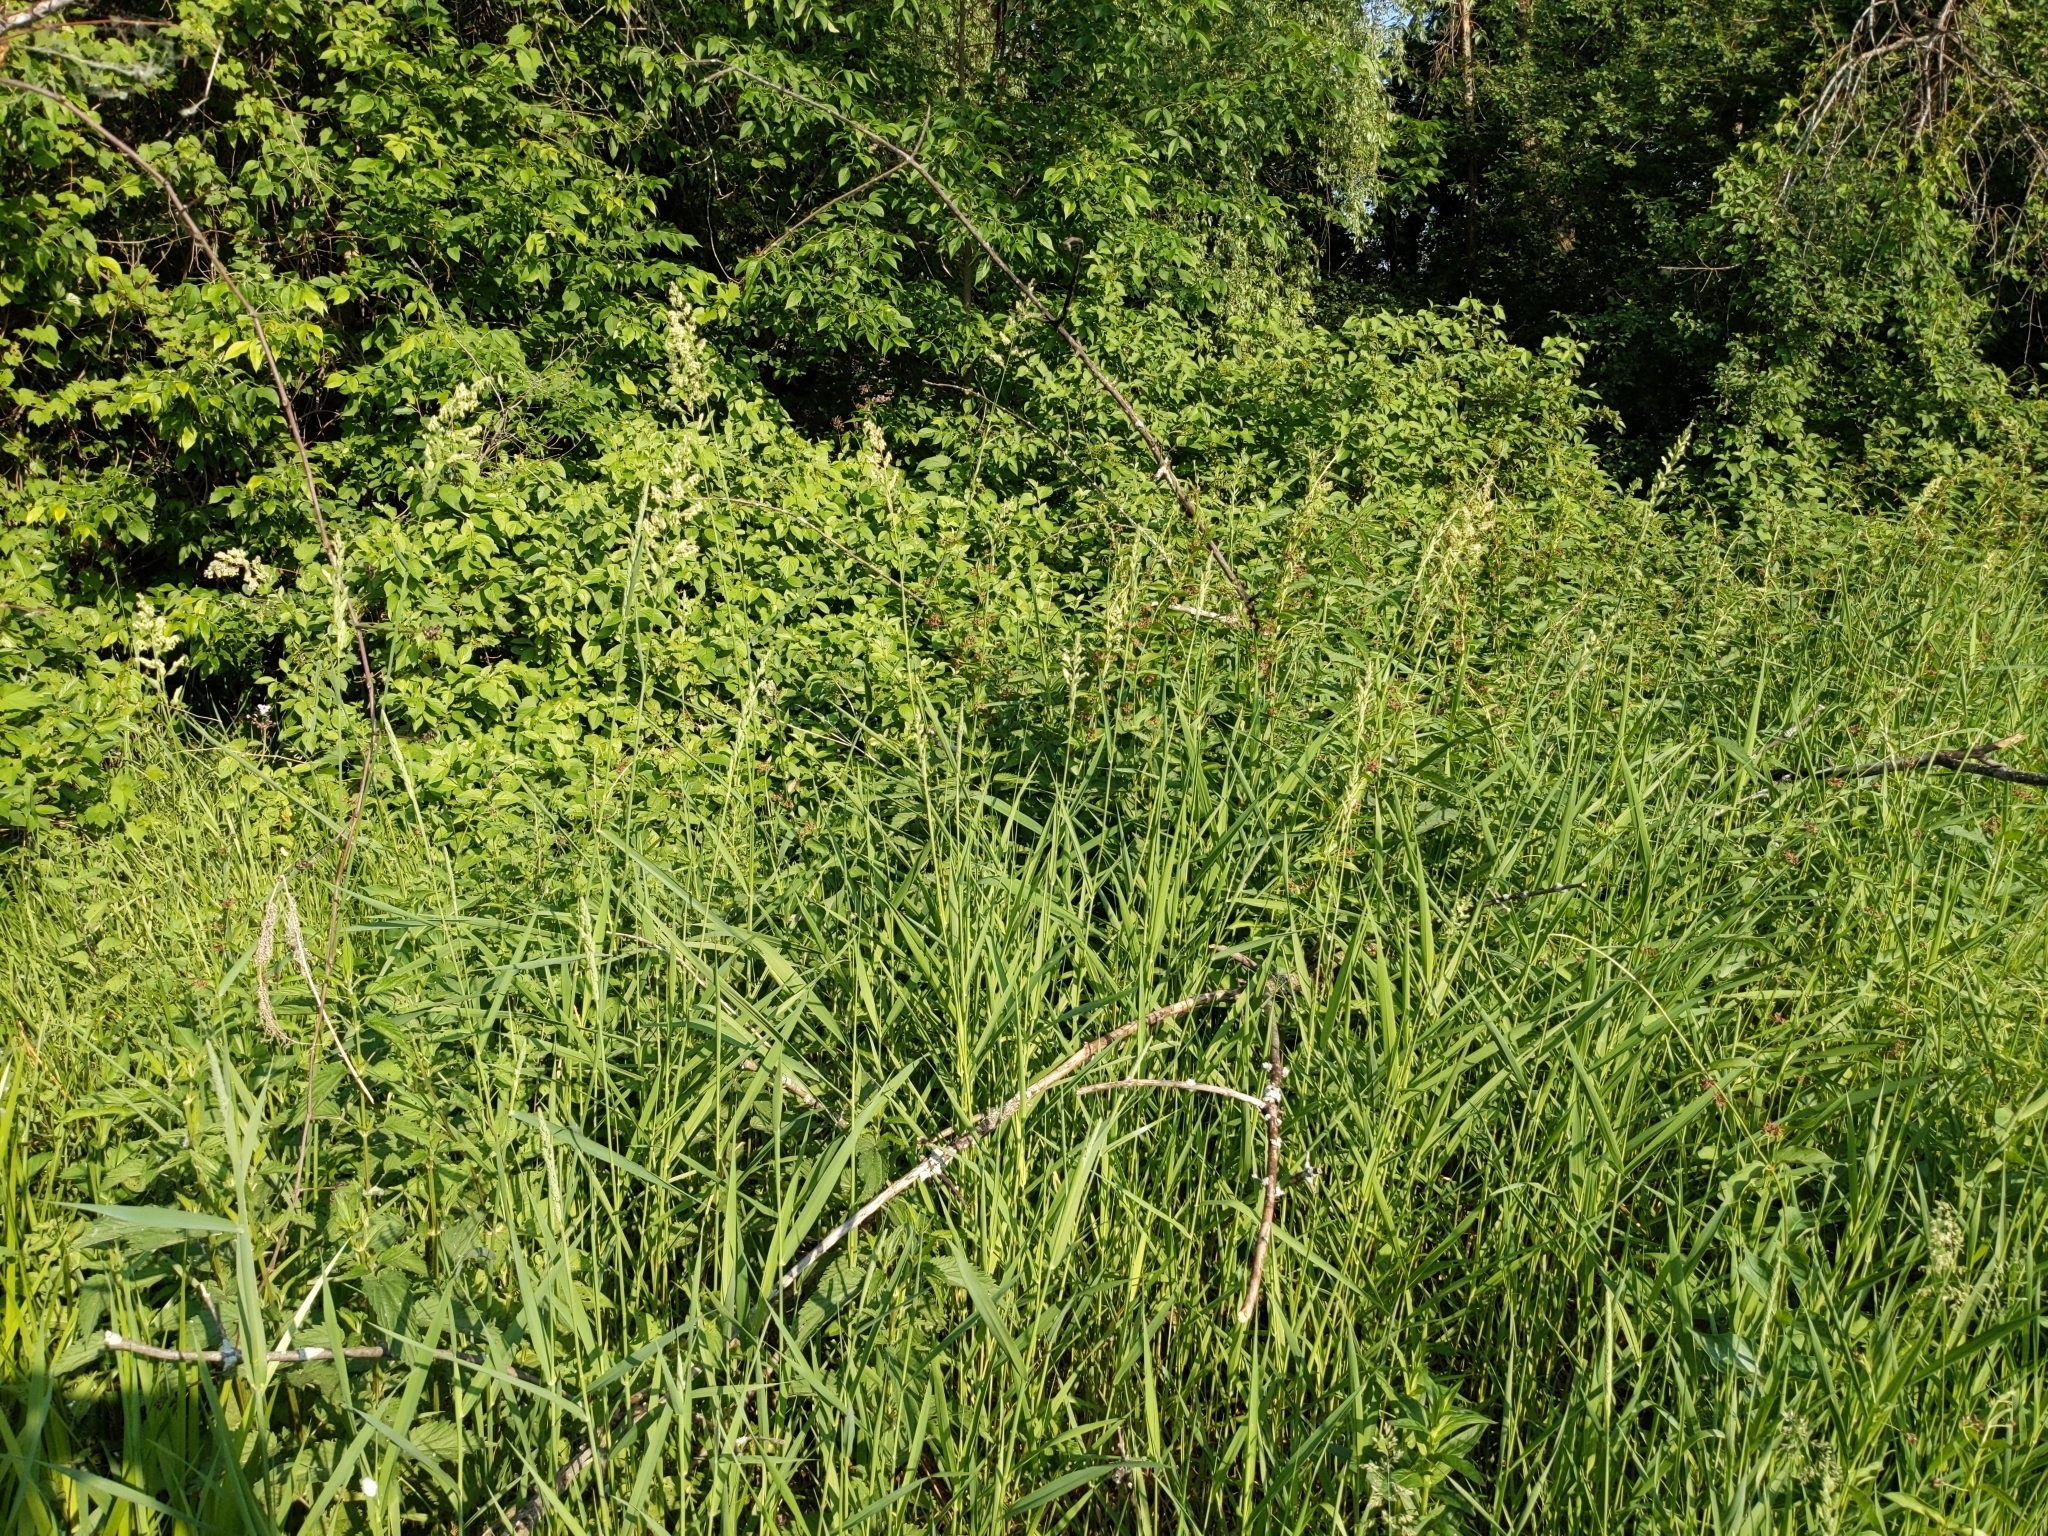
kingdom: Plantae
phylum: Tracheophyta
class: Liliopsida
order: Poales
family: Poaceae
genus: Phalaris
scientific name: Phalaris arundinacea
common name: Reed canary-grass
